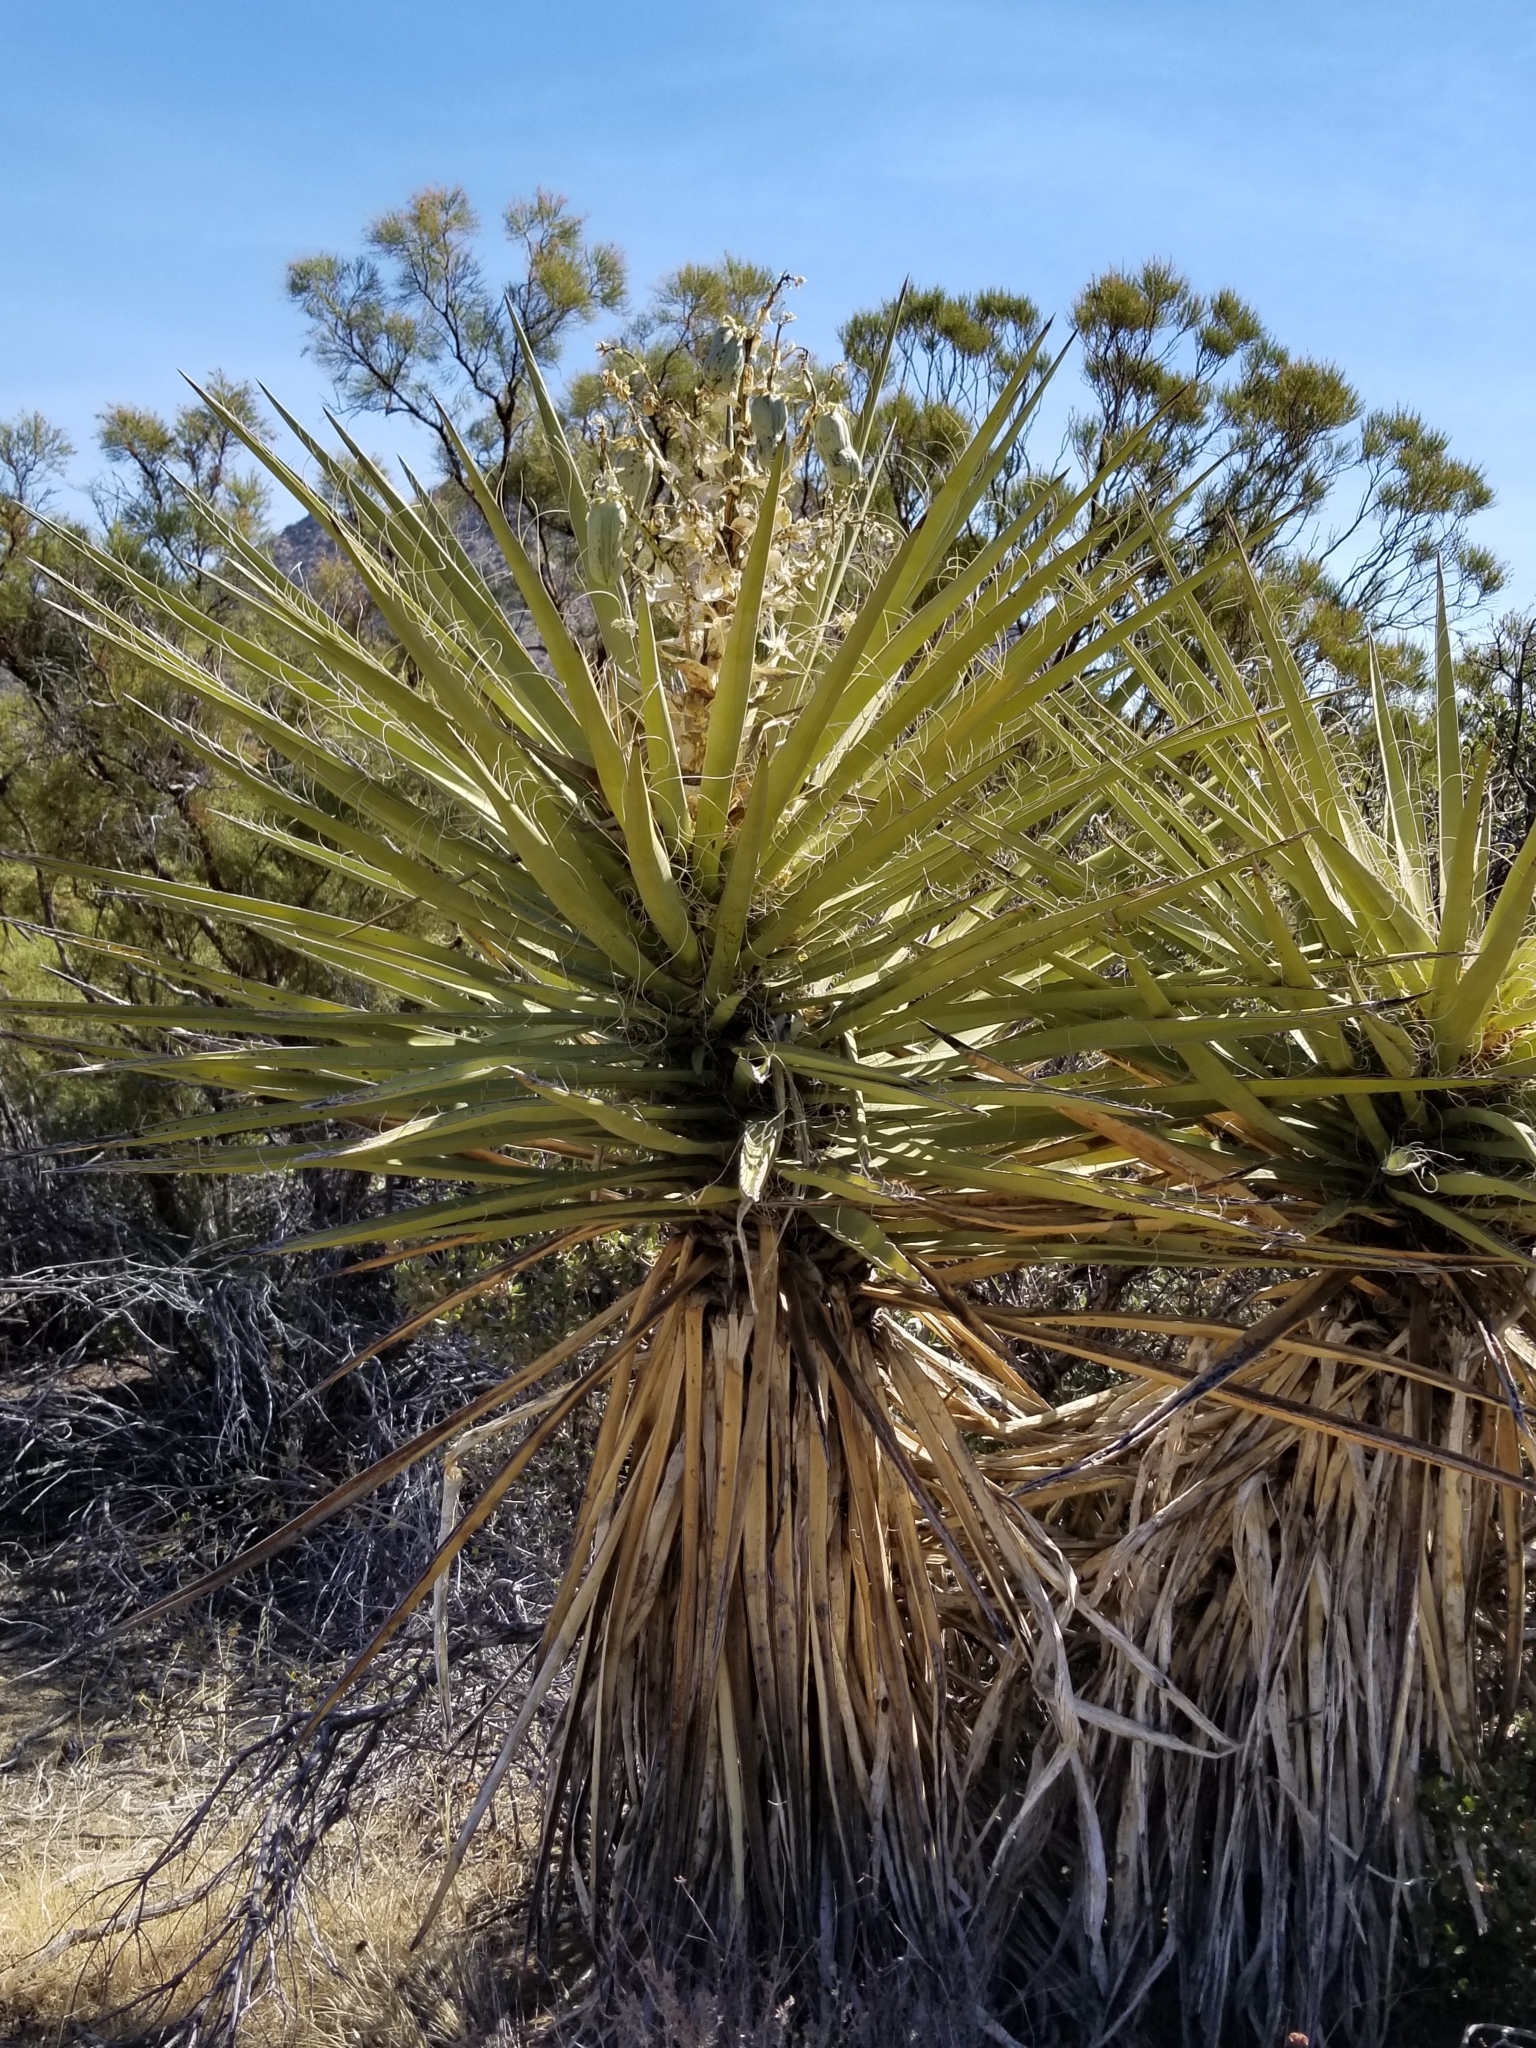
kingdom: Plantae
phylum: Tracheophyta
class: Liliopsida
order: Asparagales
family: Asparagaceae
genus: Yucca
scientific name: Yucca schidigera
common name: Mojave yucca
